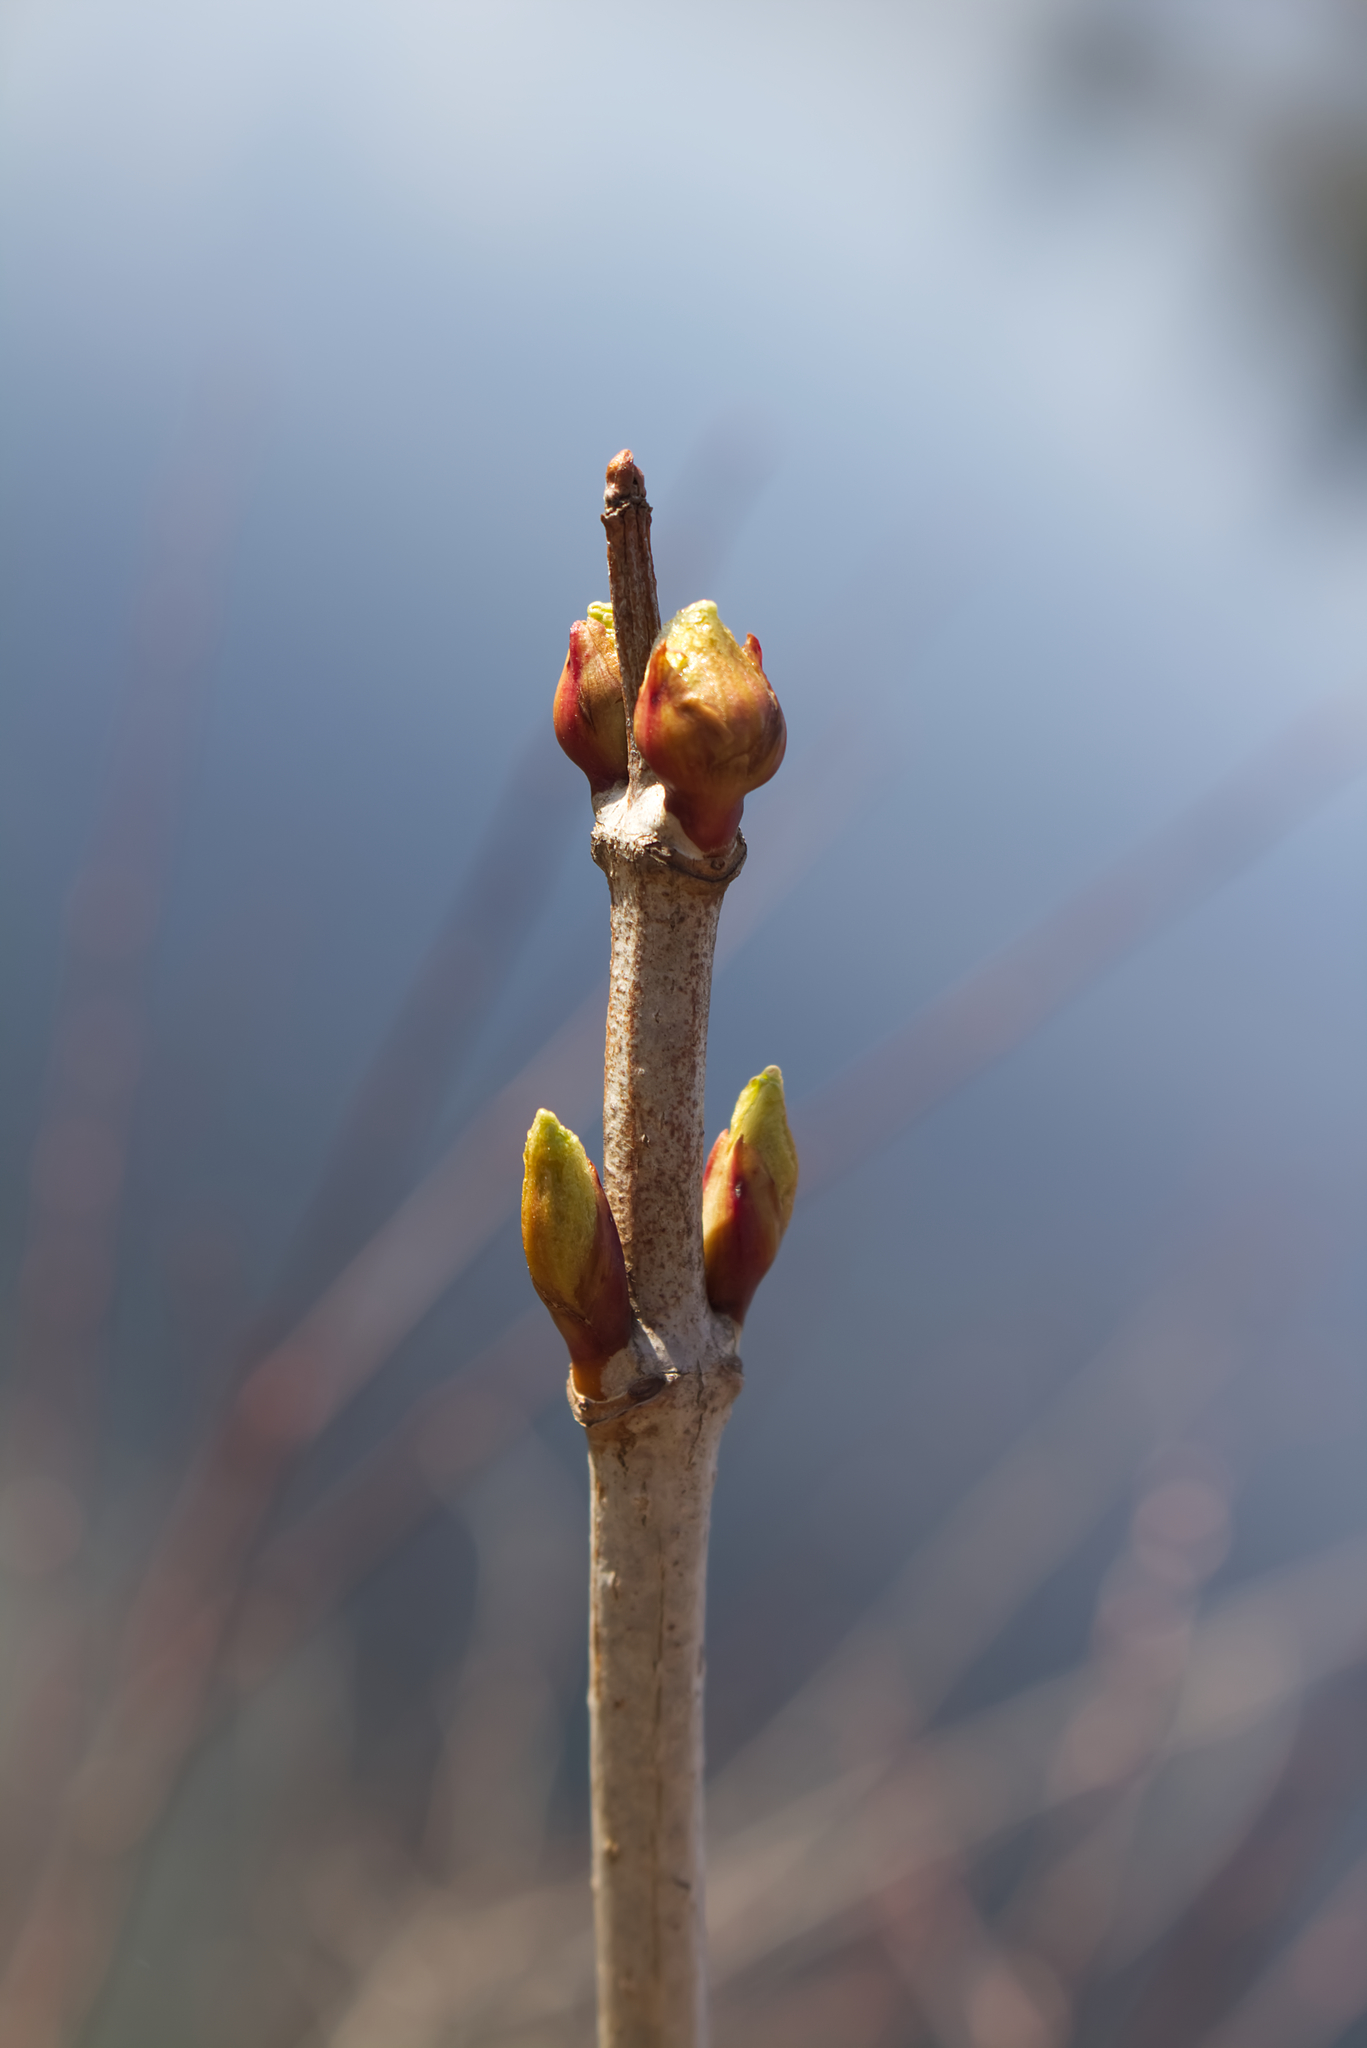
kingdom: Plantae
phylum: Tracheophyta
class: Magnoliopsida
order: Dipsacales
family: Viburnaceae
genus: Viburnum
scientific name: Viburnum opulus
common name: Guelder-rose
